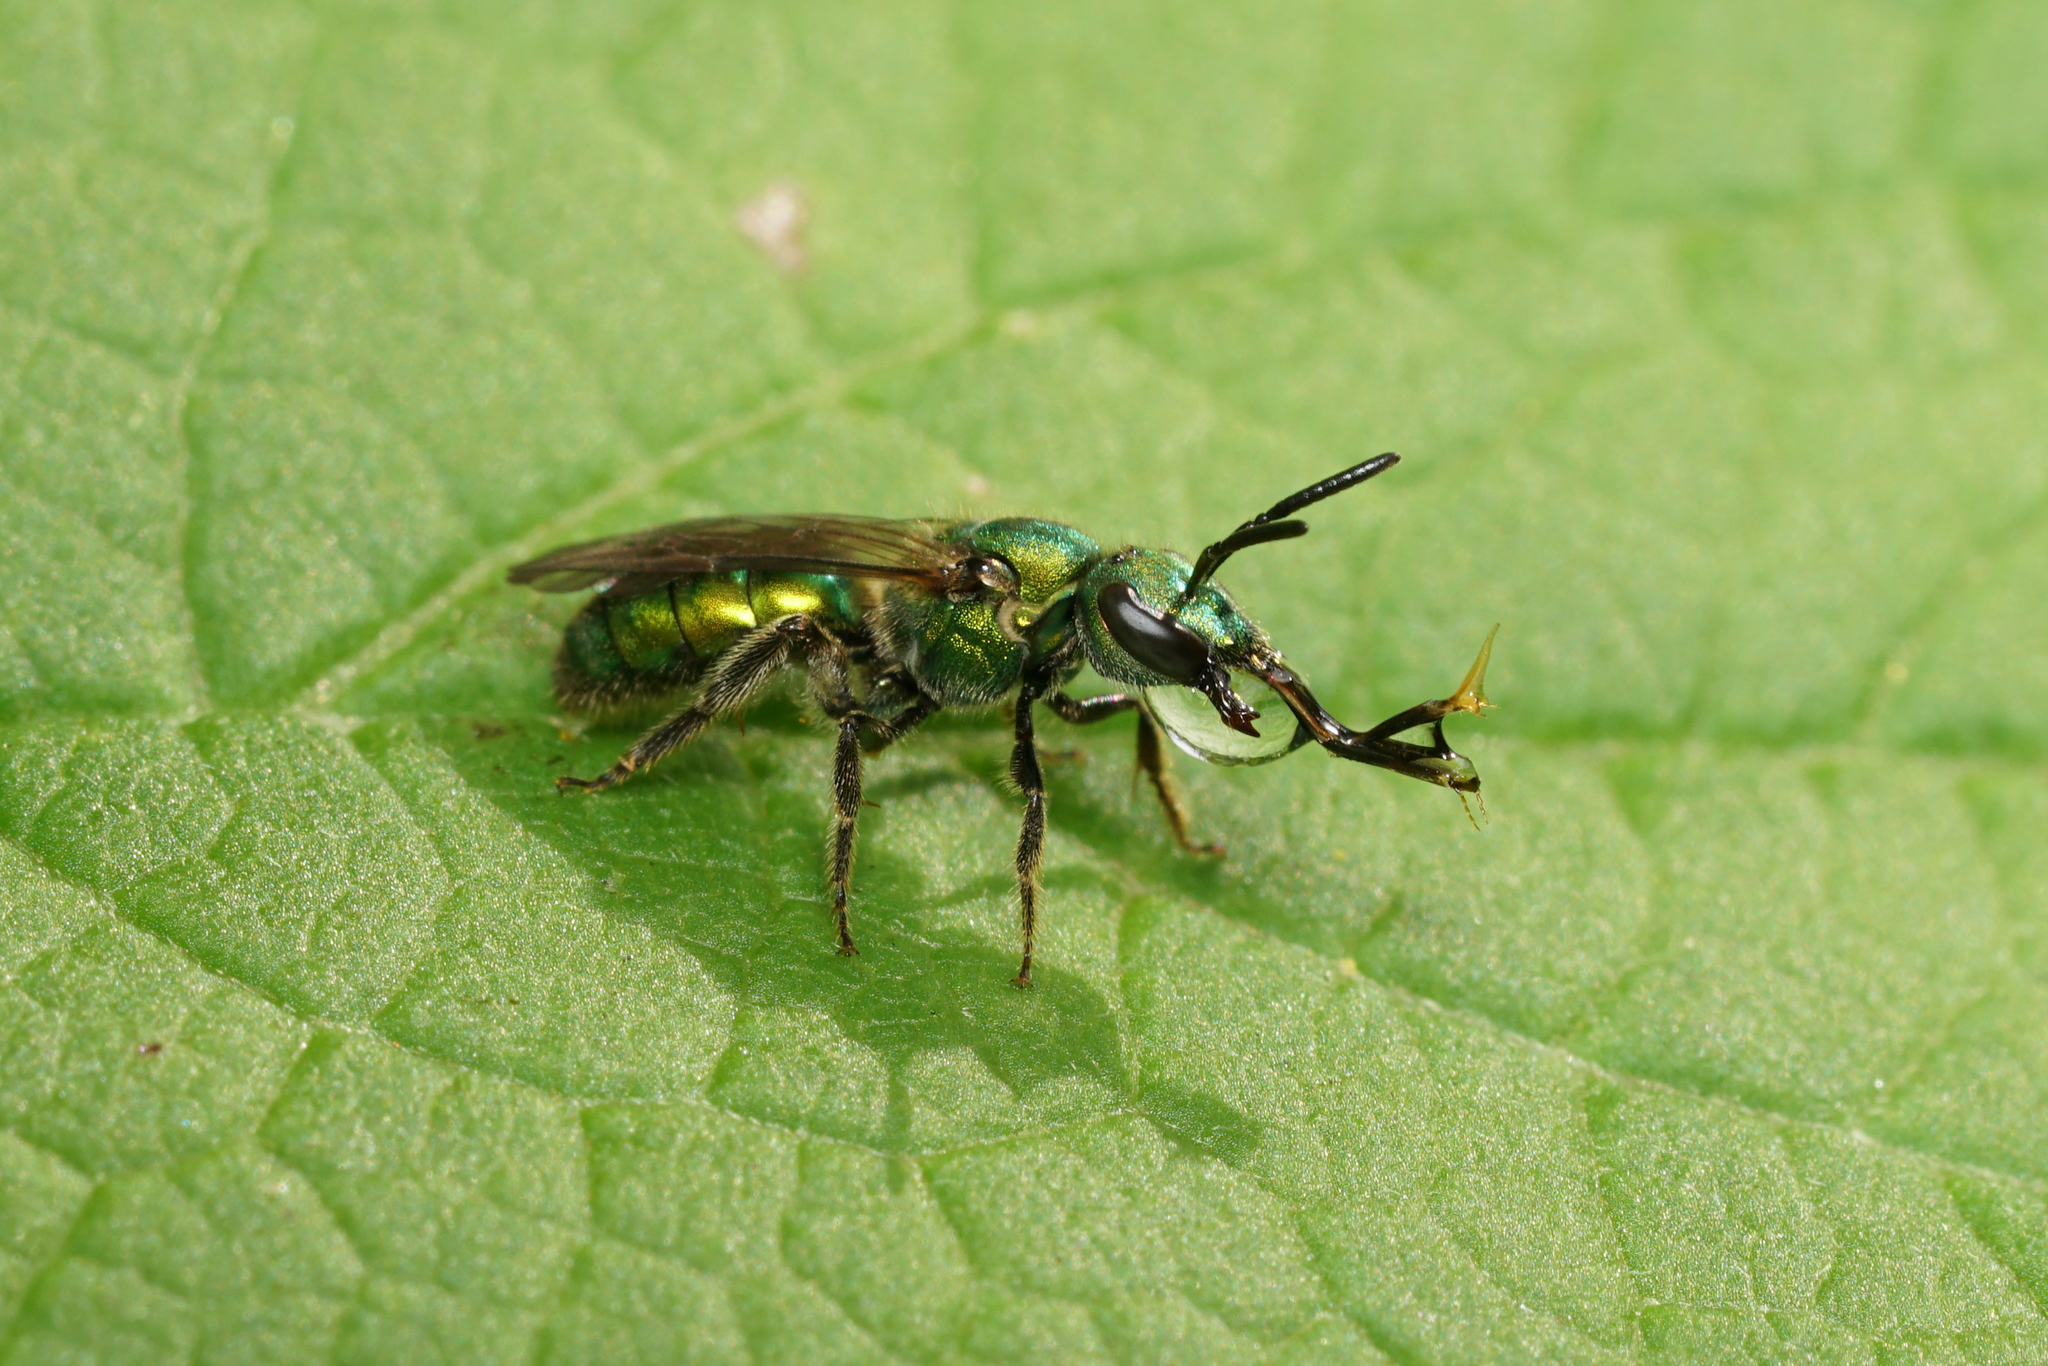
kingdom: Animalia
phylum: Arthropoda
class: Insecta
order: Hymenoptera
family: Halictidae
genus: Augochlora
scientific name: Augochlora pura
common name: Pure green sweat bee
